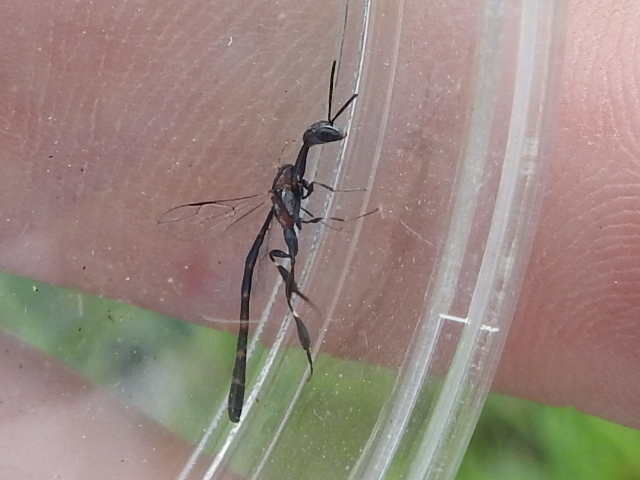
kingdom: Animalia
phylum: Arthropoda
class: Insecta
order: Hymenoptera
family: Gasteruptiidae
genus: Gasteruption
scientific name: Gasteruption
